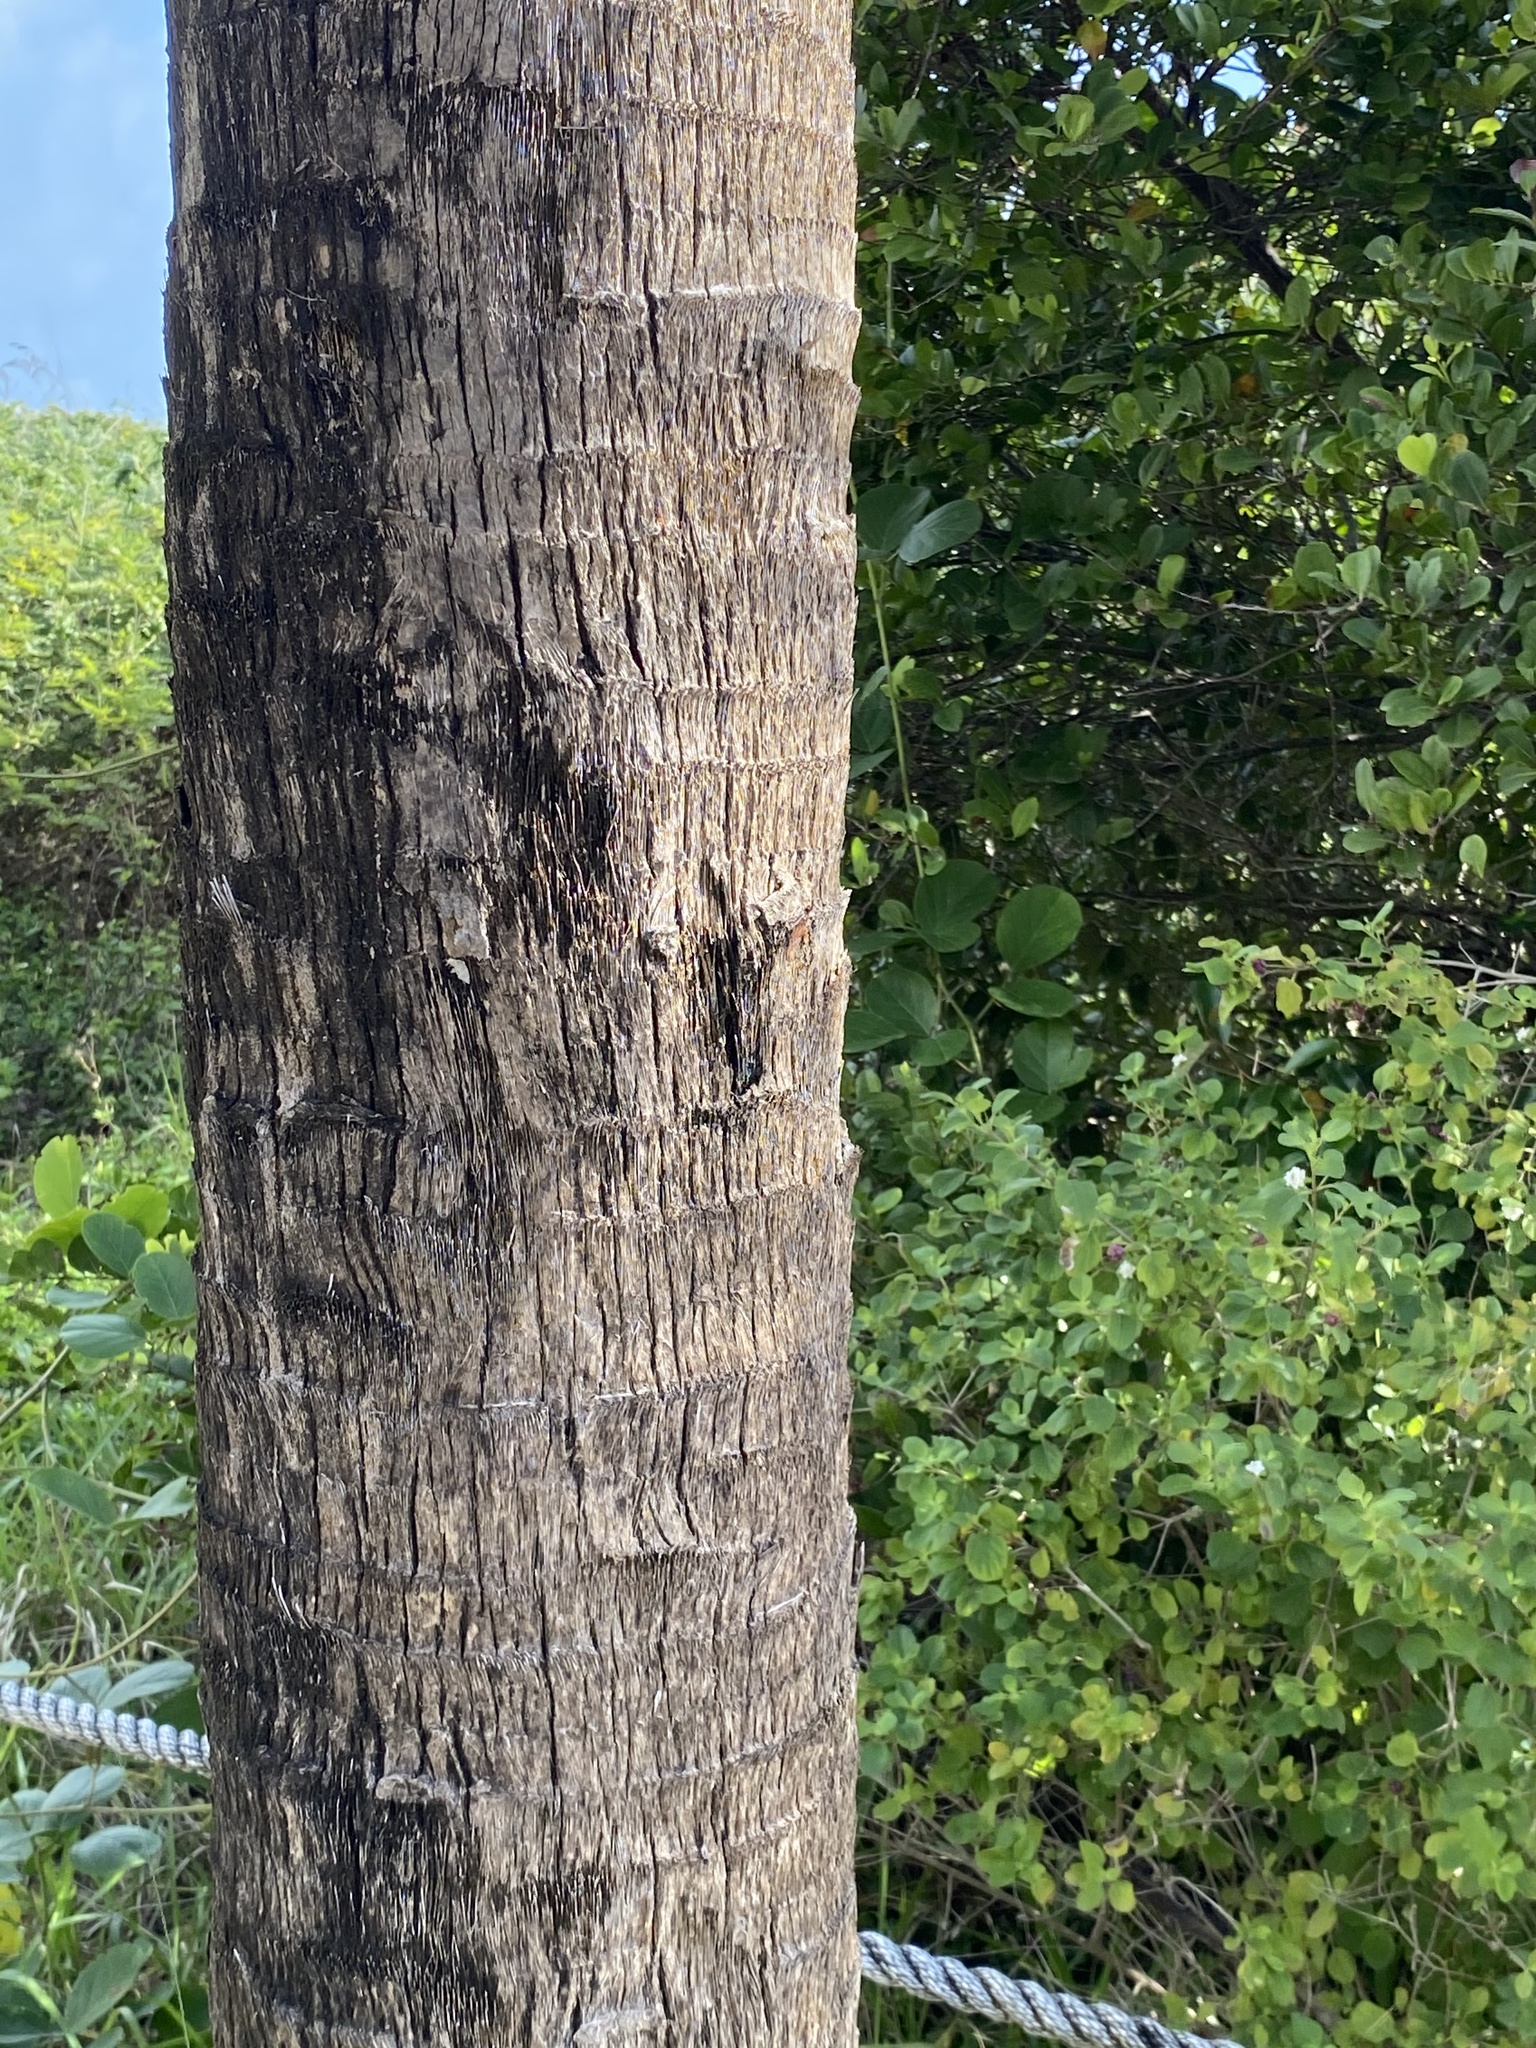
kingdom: Plantae
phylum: Tracheophyta
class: Liliopsida
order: Arecales
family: Arecaceae
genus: Sabal
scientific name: Sabal palmetto
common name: Blue palmetto
